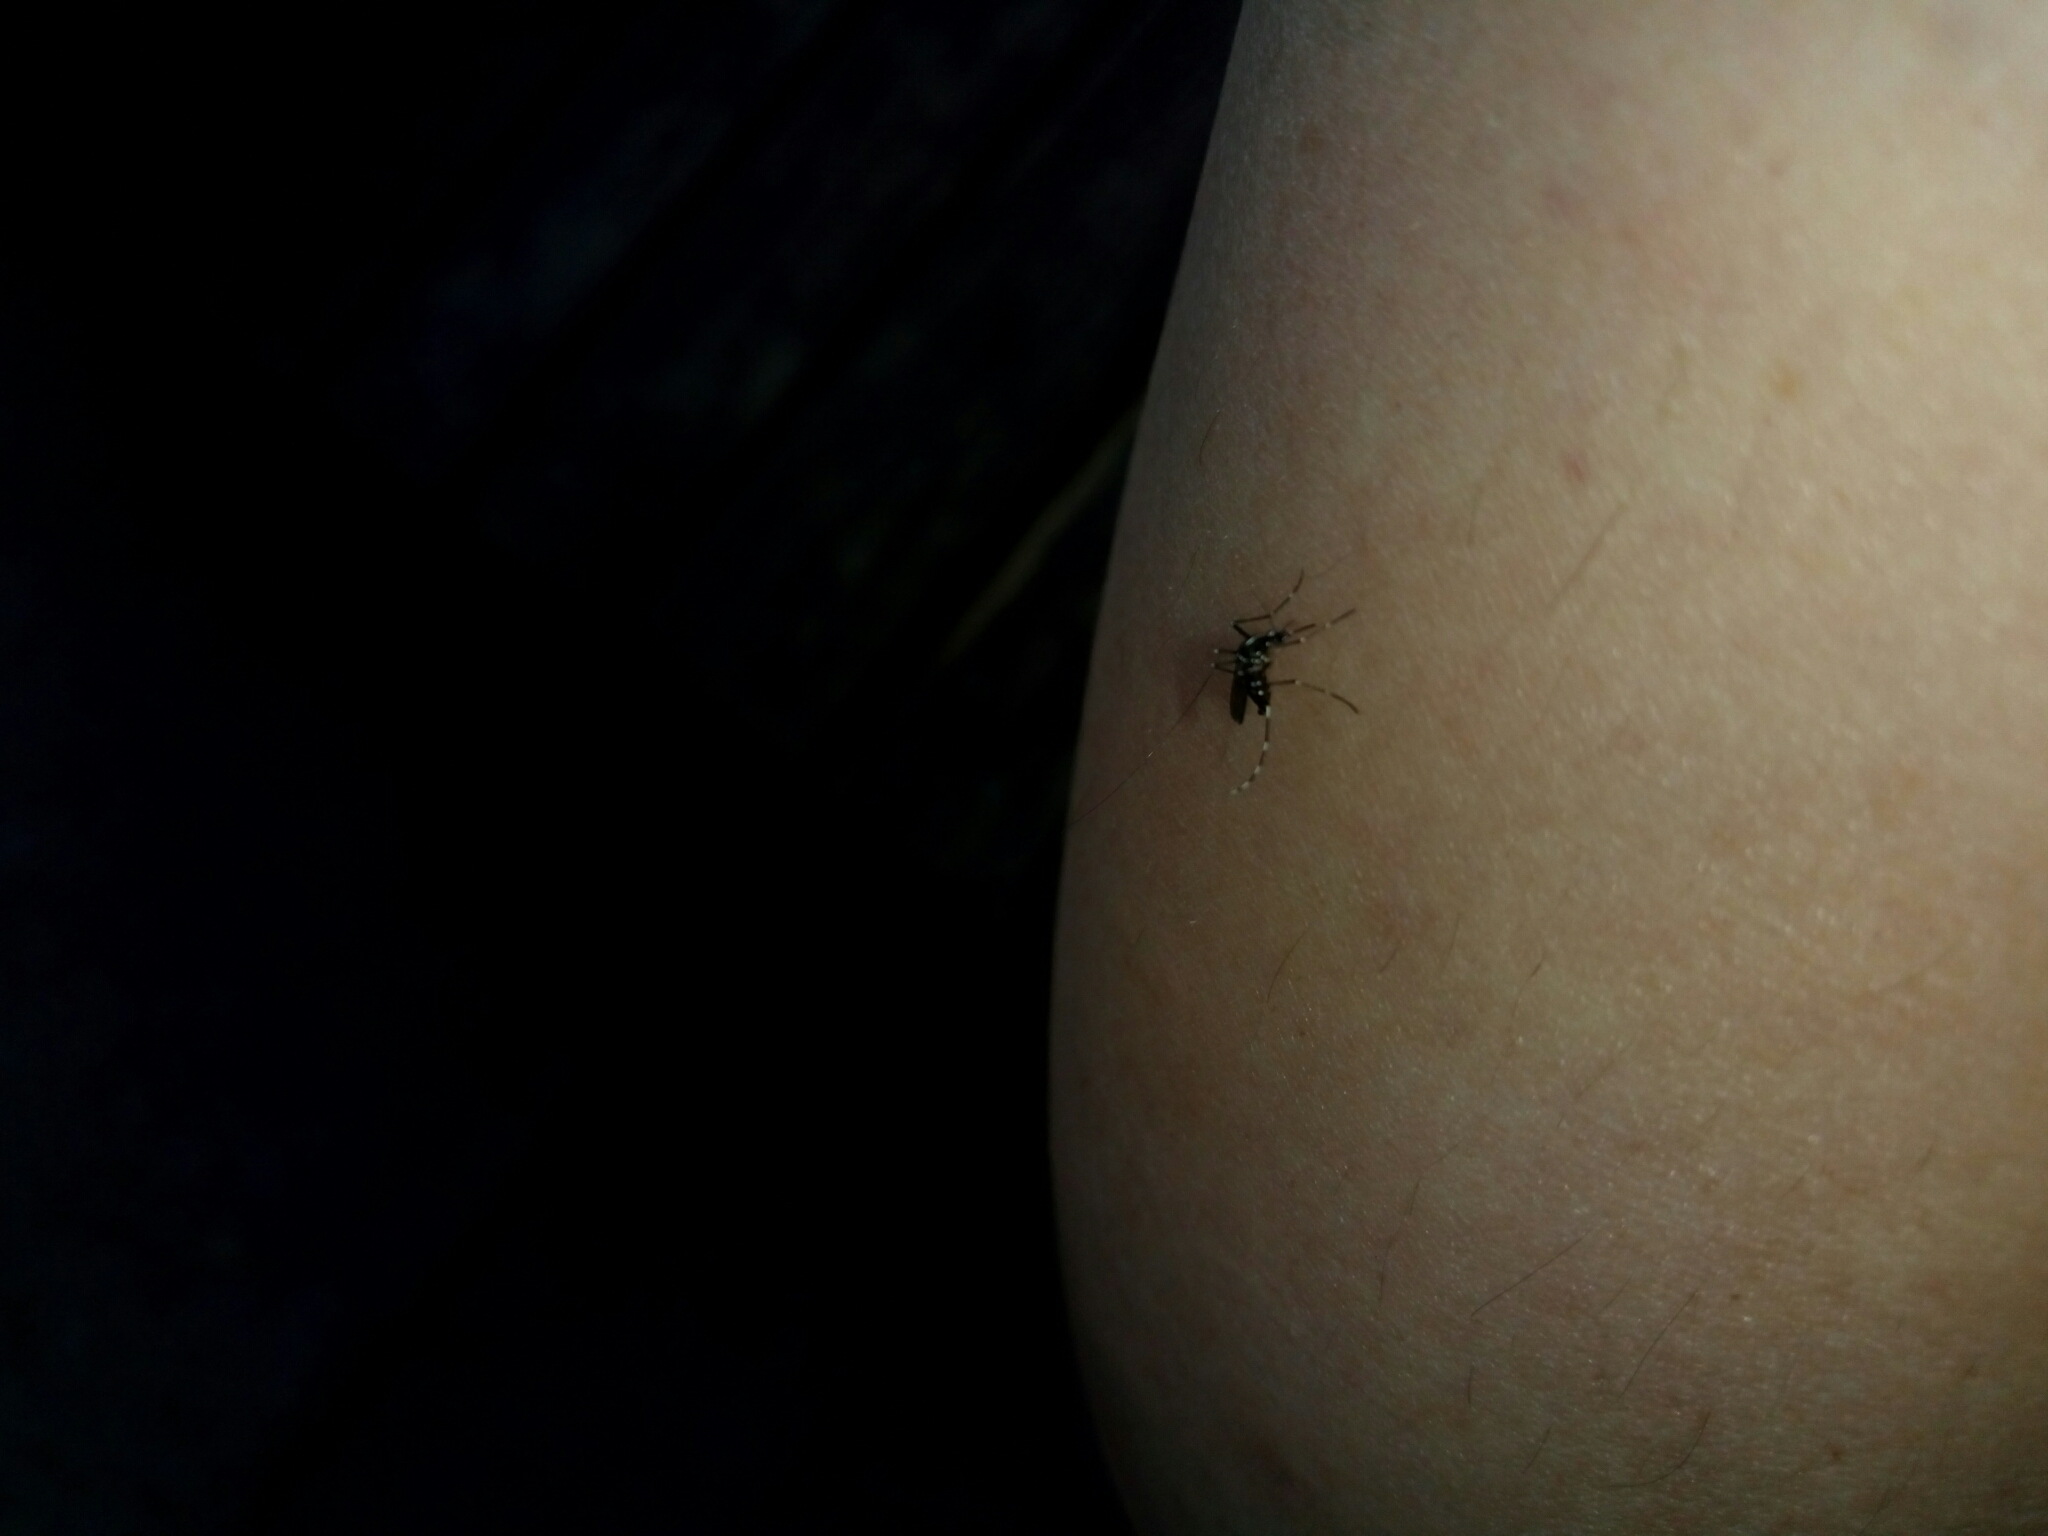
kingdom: Animalia
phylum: Arthropoda
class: Insecta
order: Diptera
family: Culicidae
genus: Aedes
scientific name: Aedes albopictus
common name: Tiger mosquito
